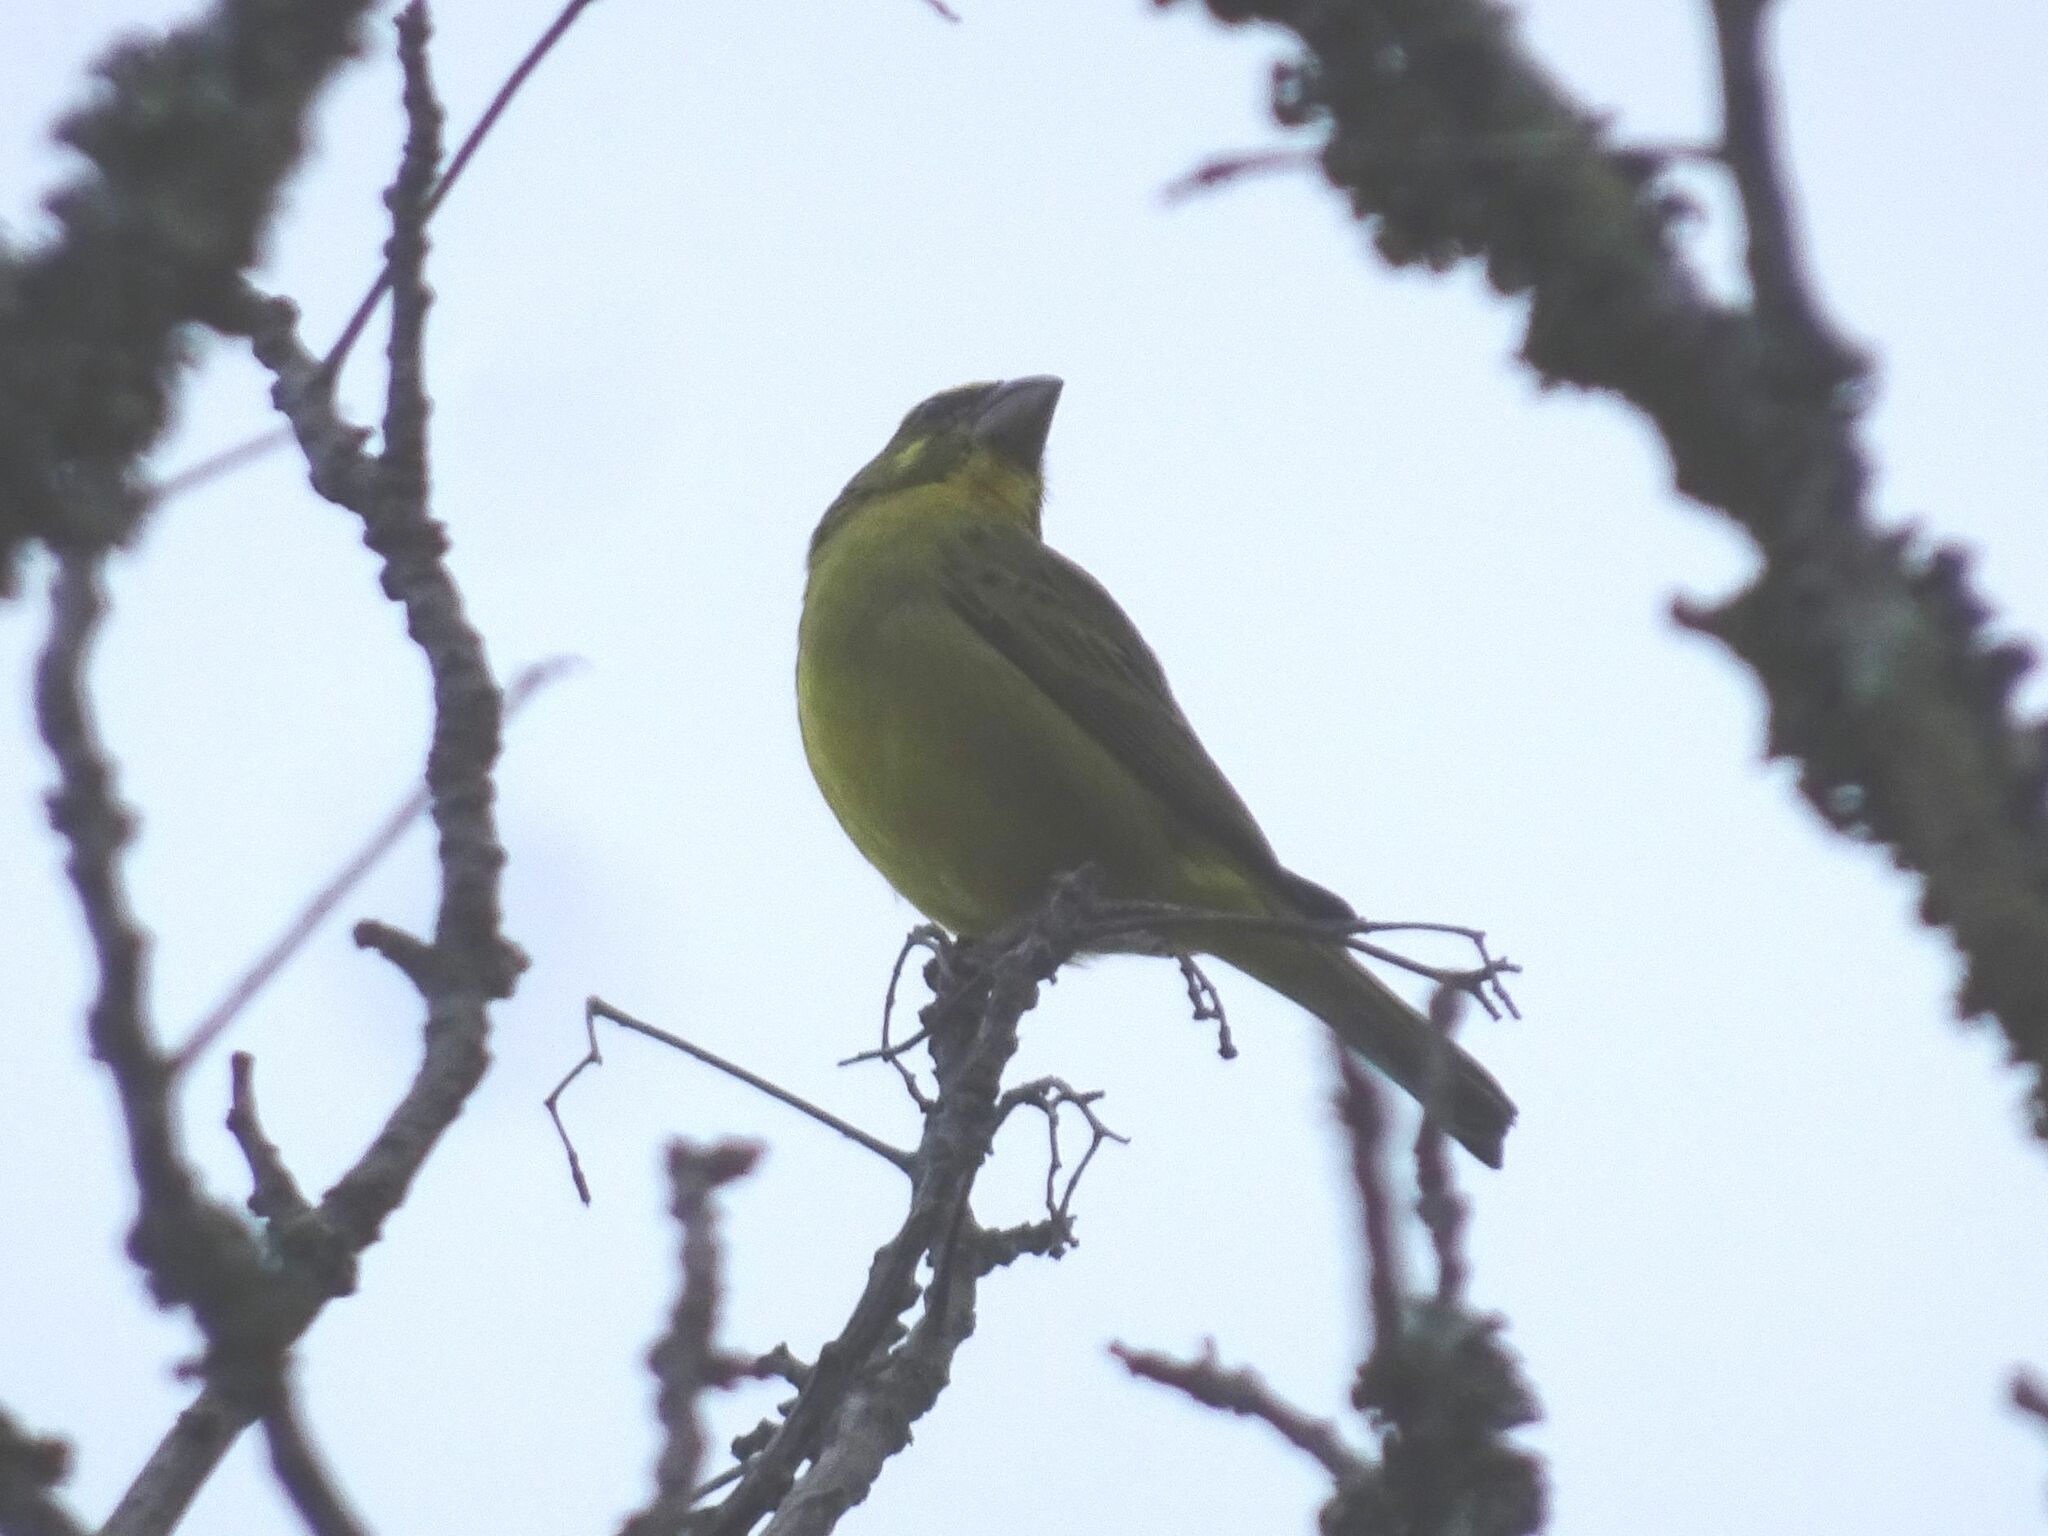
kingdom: Animalia
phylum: Chordata
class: Aves
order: Passeriformes
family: Fringillidae
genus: Crithagra
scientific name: Crithagra sulphurata
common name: Brimstone canary
